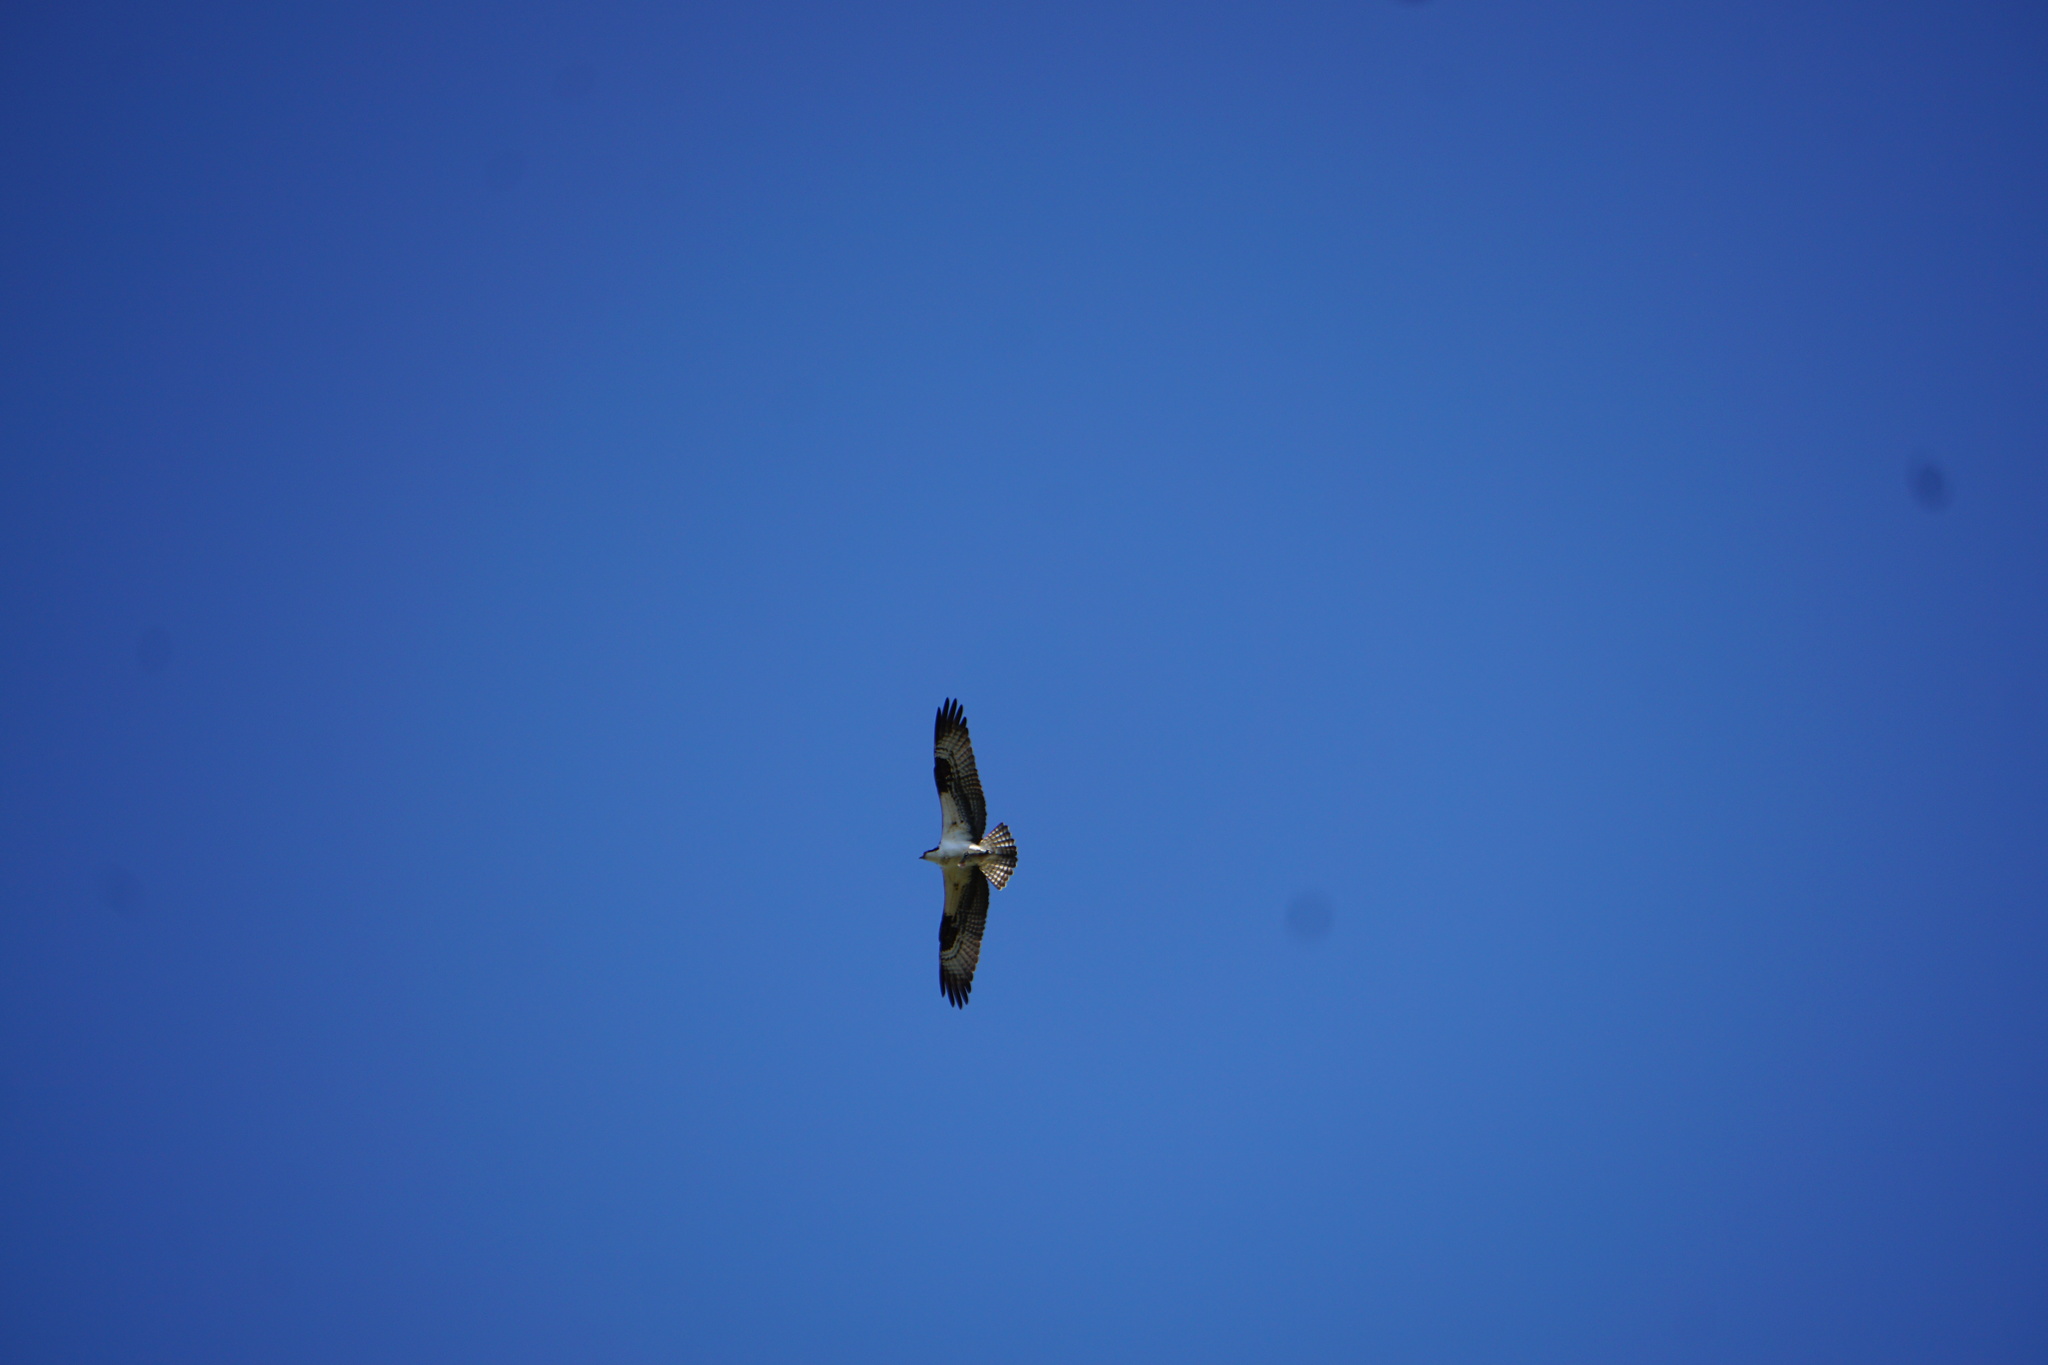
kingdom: Animalia
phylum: Chordata
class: Aves
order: Accipitriformes
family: Pandionidae
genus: Pandion
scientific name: Pandion haliaetus
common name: Osprey
